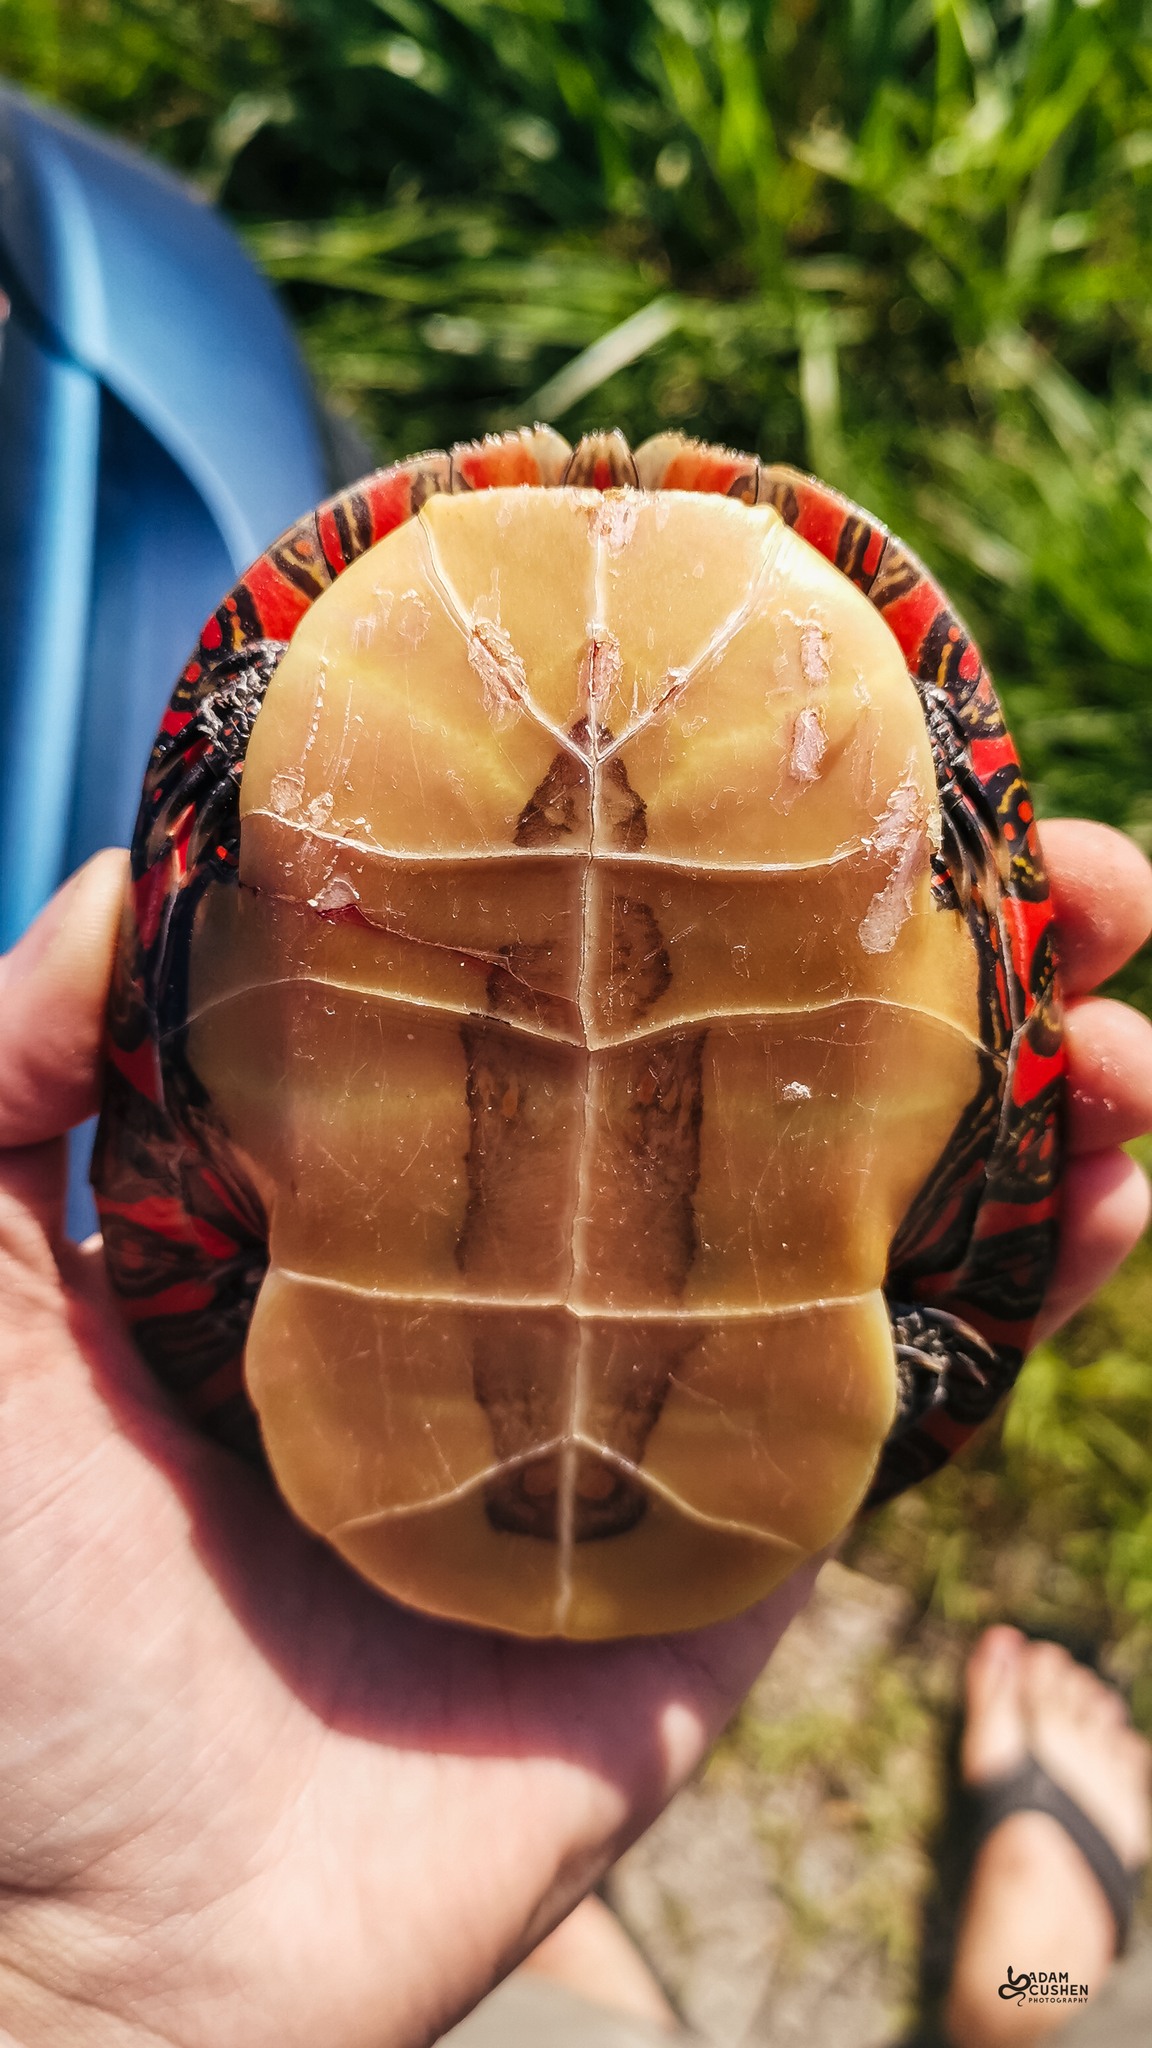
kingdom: Animalia
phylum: Chordata
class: Testudines
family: Emydidae
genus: Chrysemys
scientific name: Chrysemys picta
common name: Painted turtle
